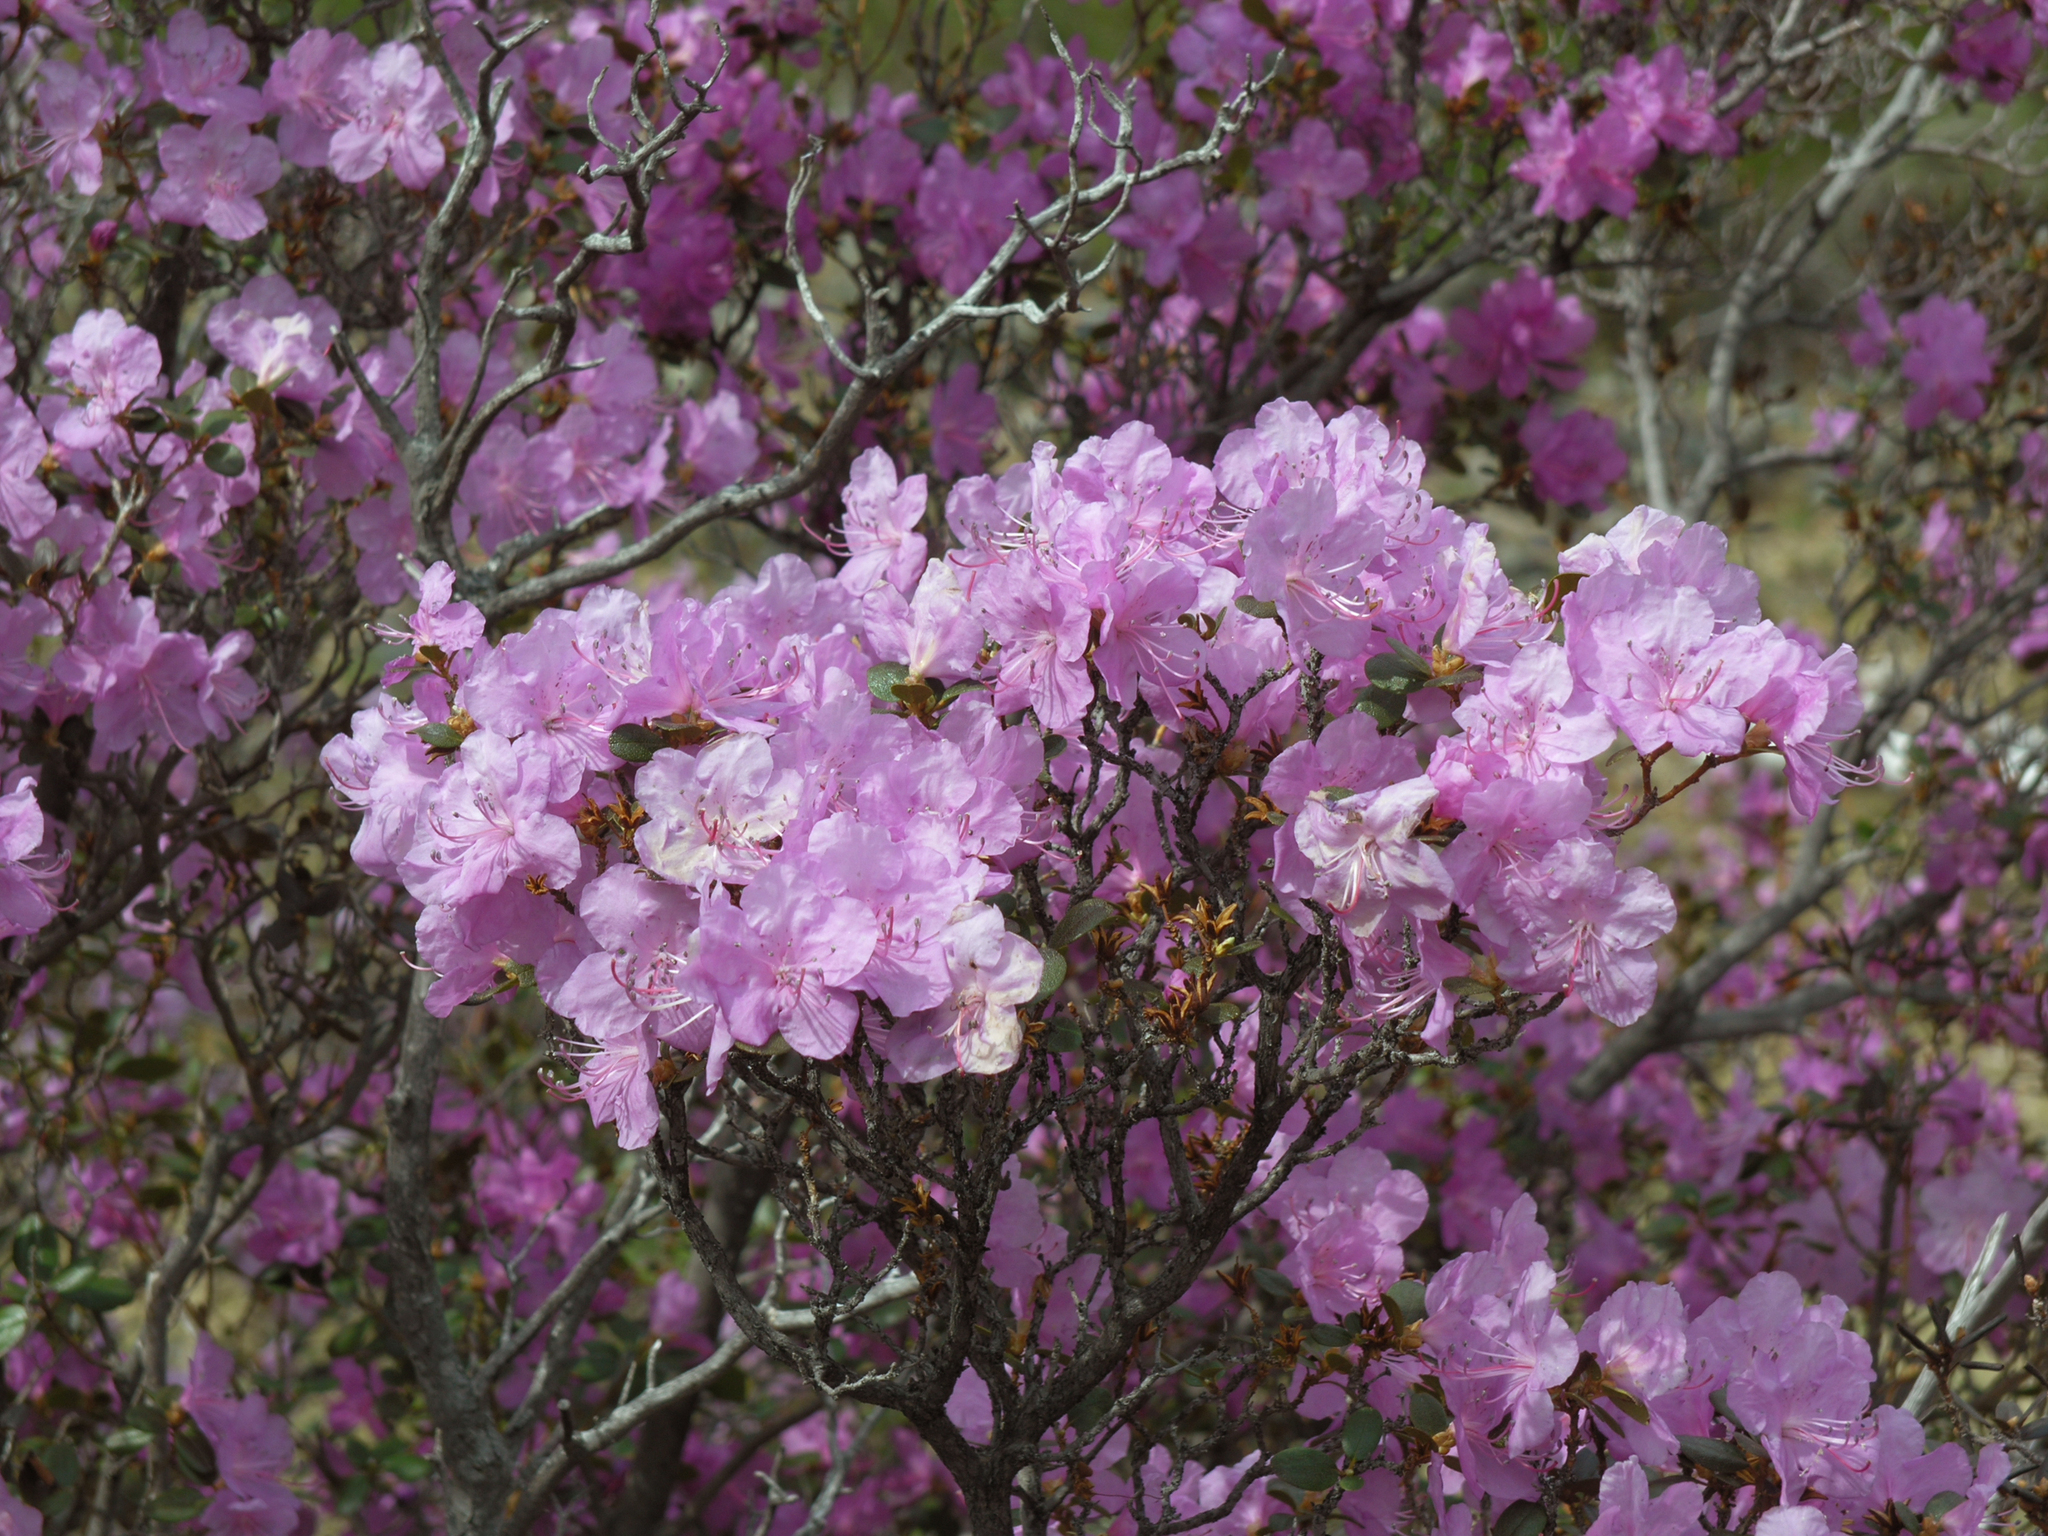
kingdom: Plantae
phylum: Tracheophyta
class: Magnoliopsida
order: Ericales
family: Ericaceae
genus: Rhododendron
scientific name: Rhododendron dauricum
